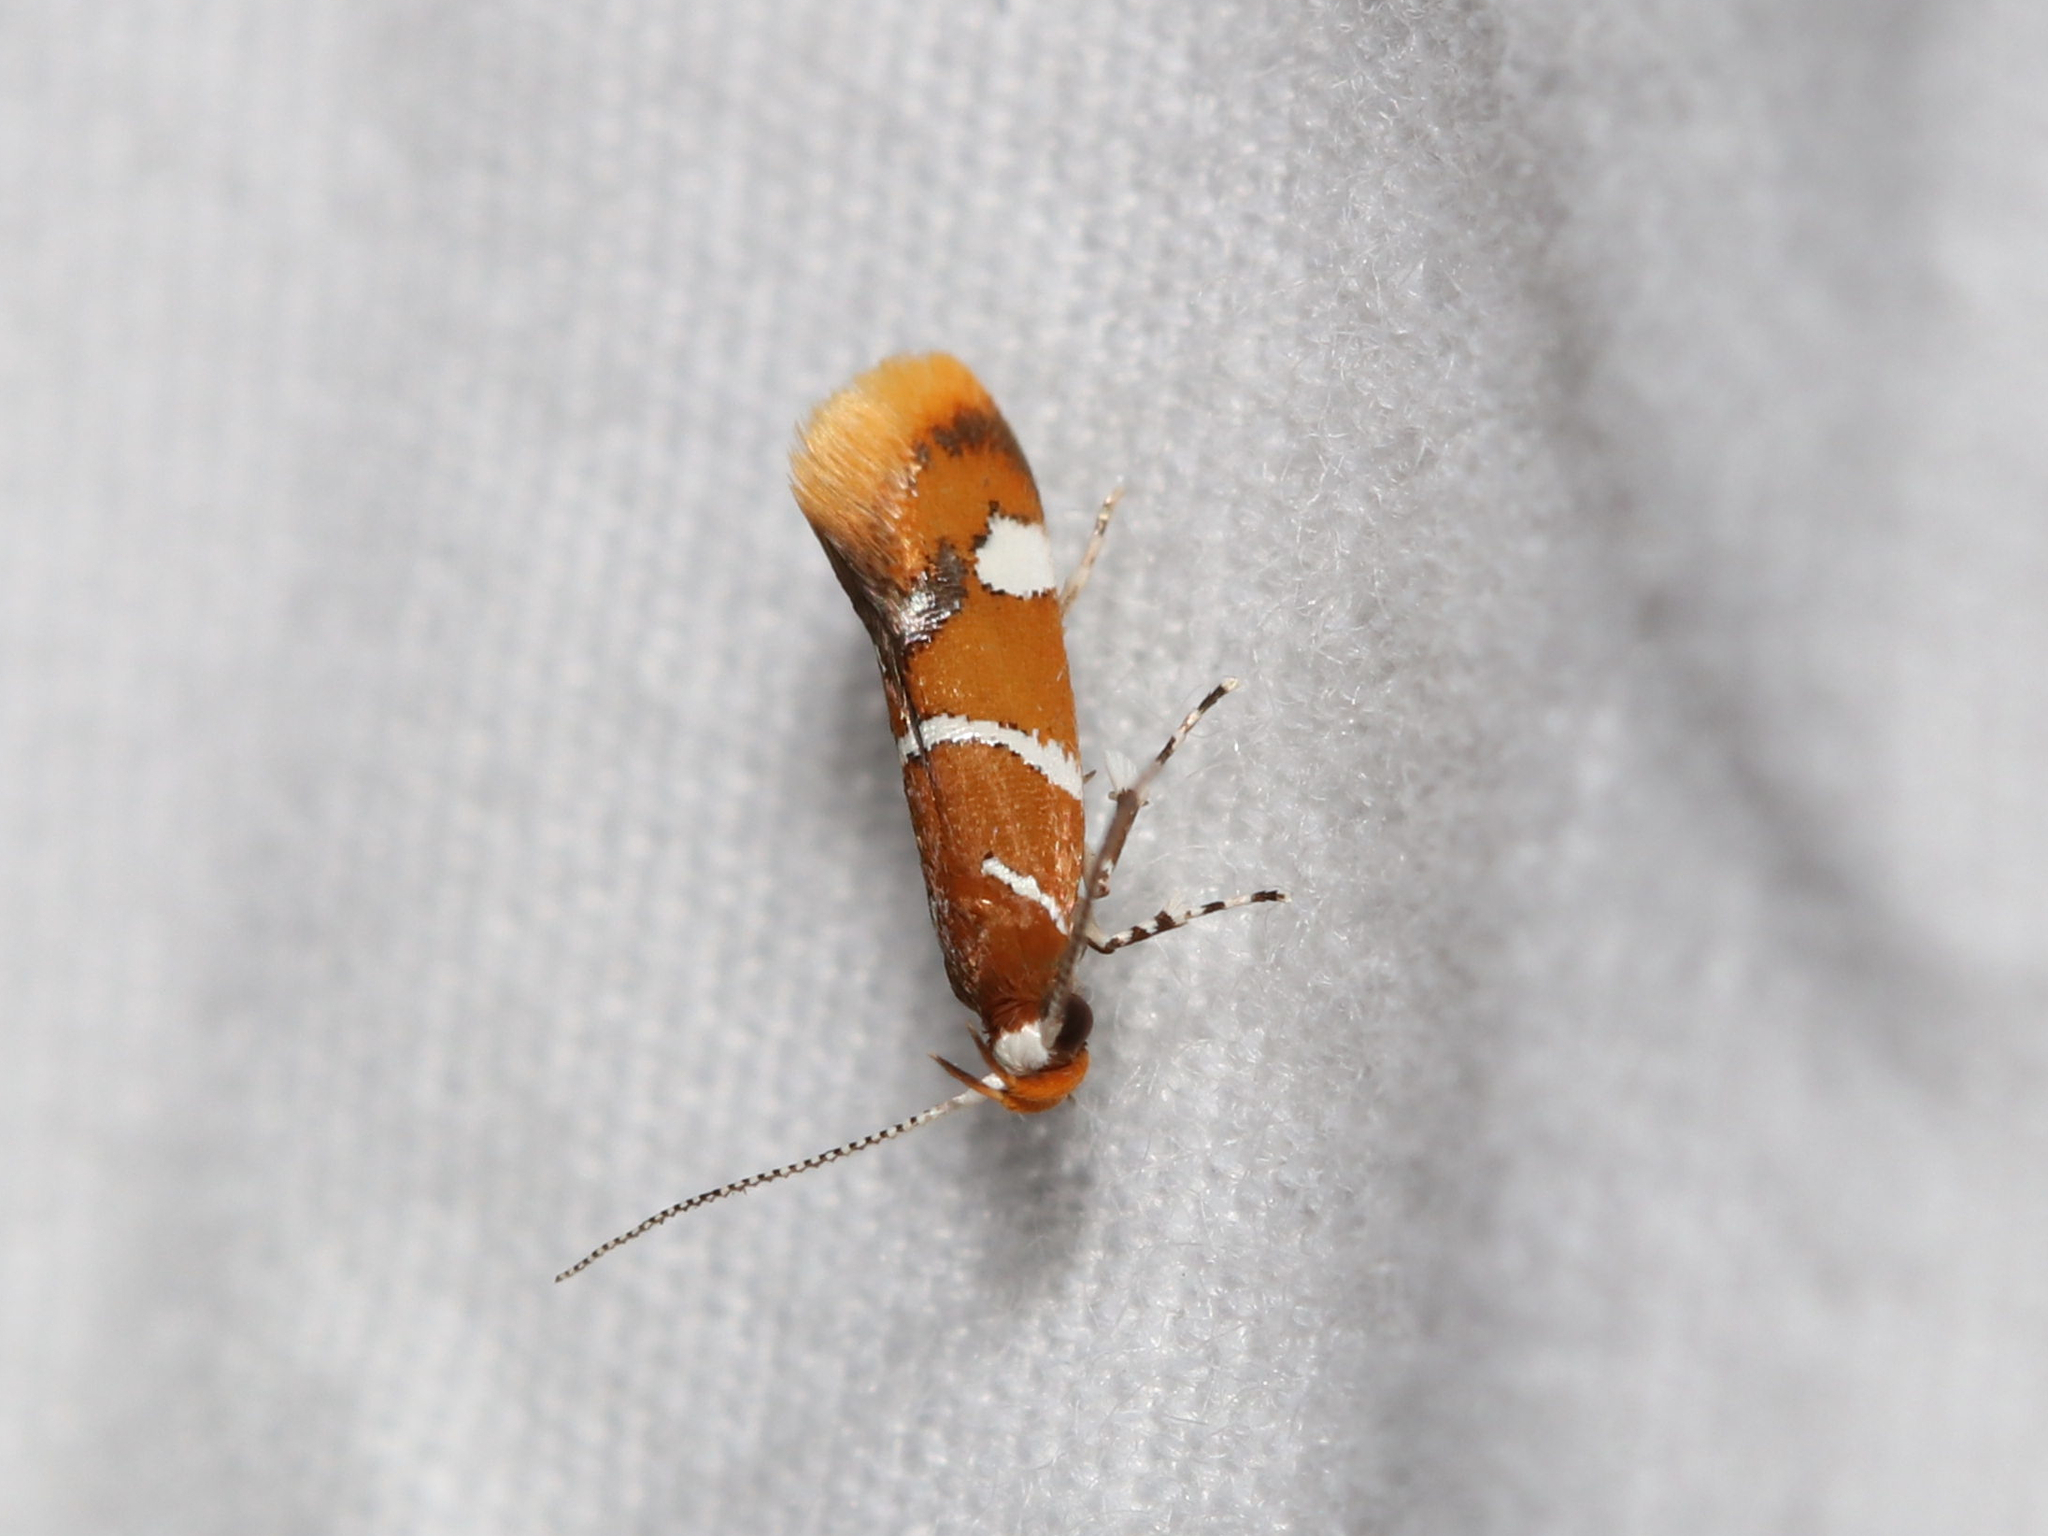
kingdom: Animalia
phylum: Arthropoda
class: Insecta
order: Lepidoptera
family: Oecophoridae
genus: Promalactis
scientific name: Promalactis suzukiella
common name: Moth
